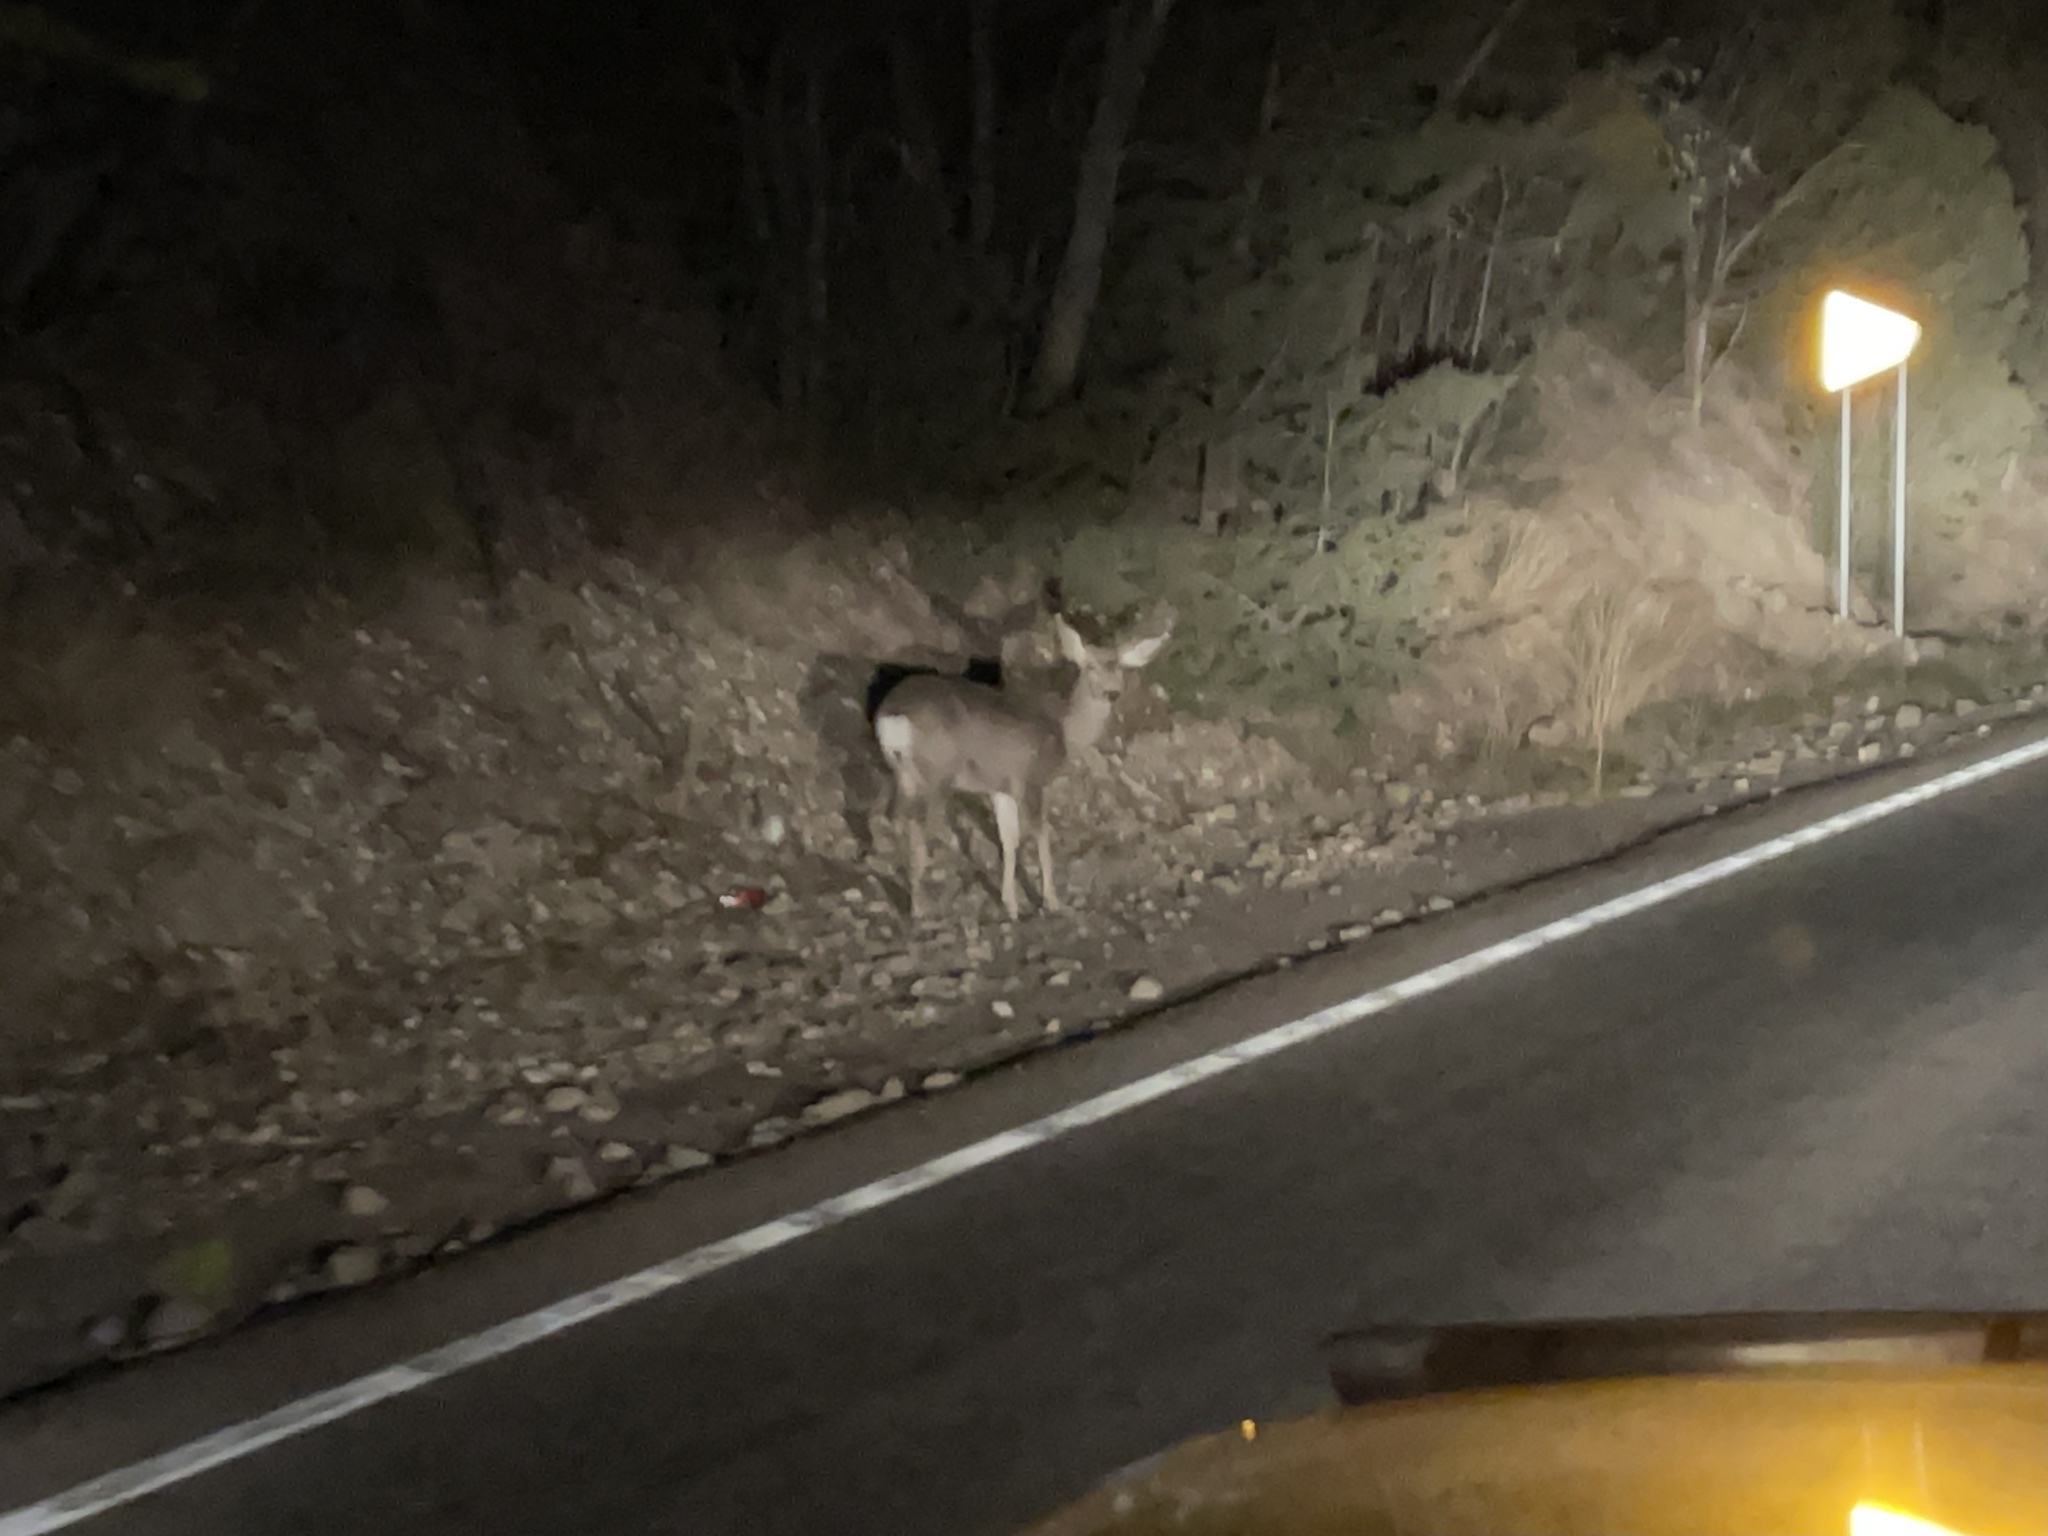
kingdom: Animalia
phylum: Chordata
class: Mammalia
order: Artiodactyla
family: Cervidae
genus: Odocoileus
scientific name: Odocoileus hemionus
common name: Mule deer
